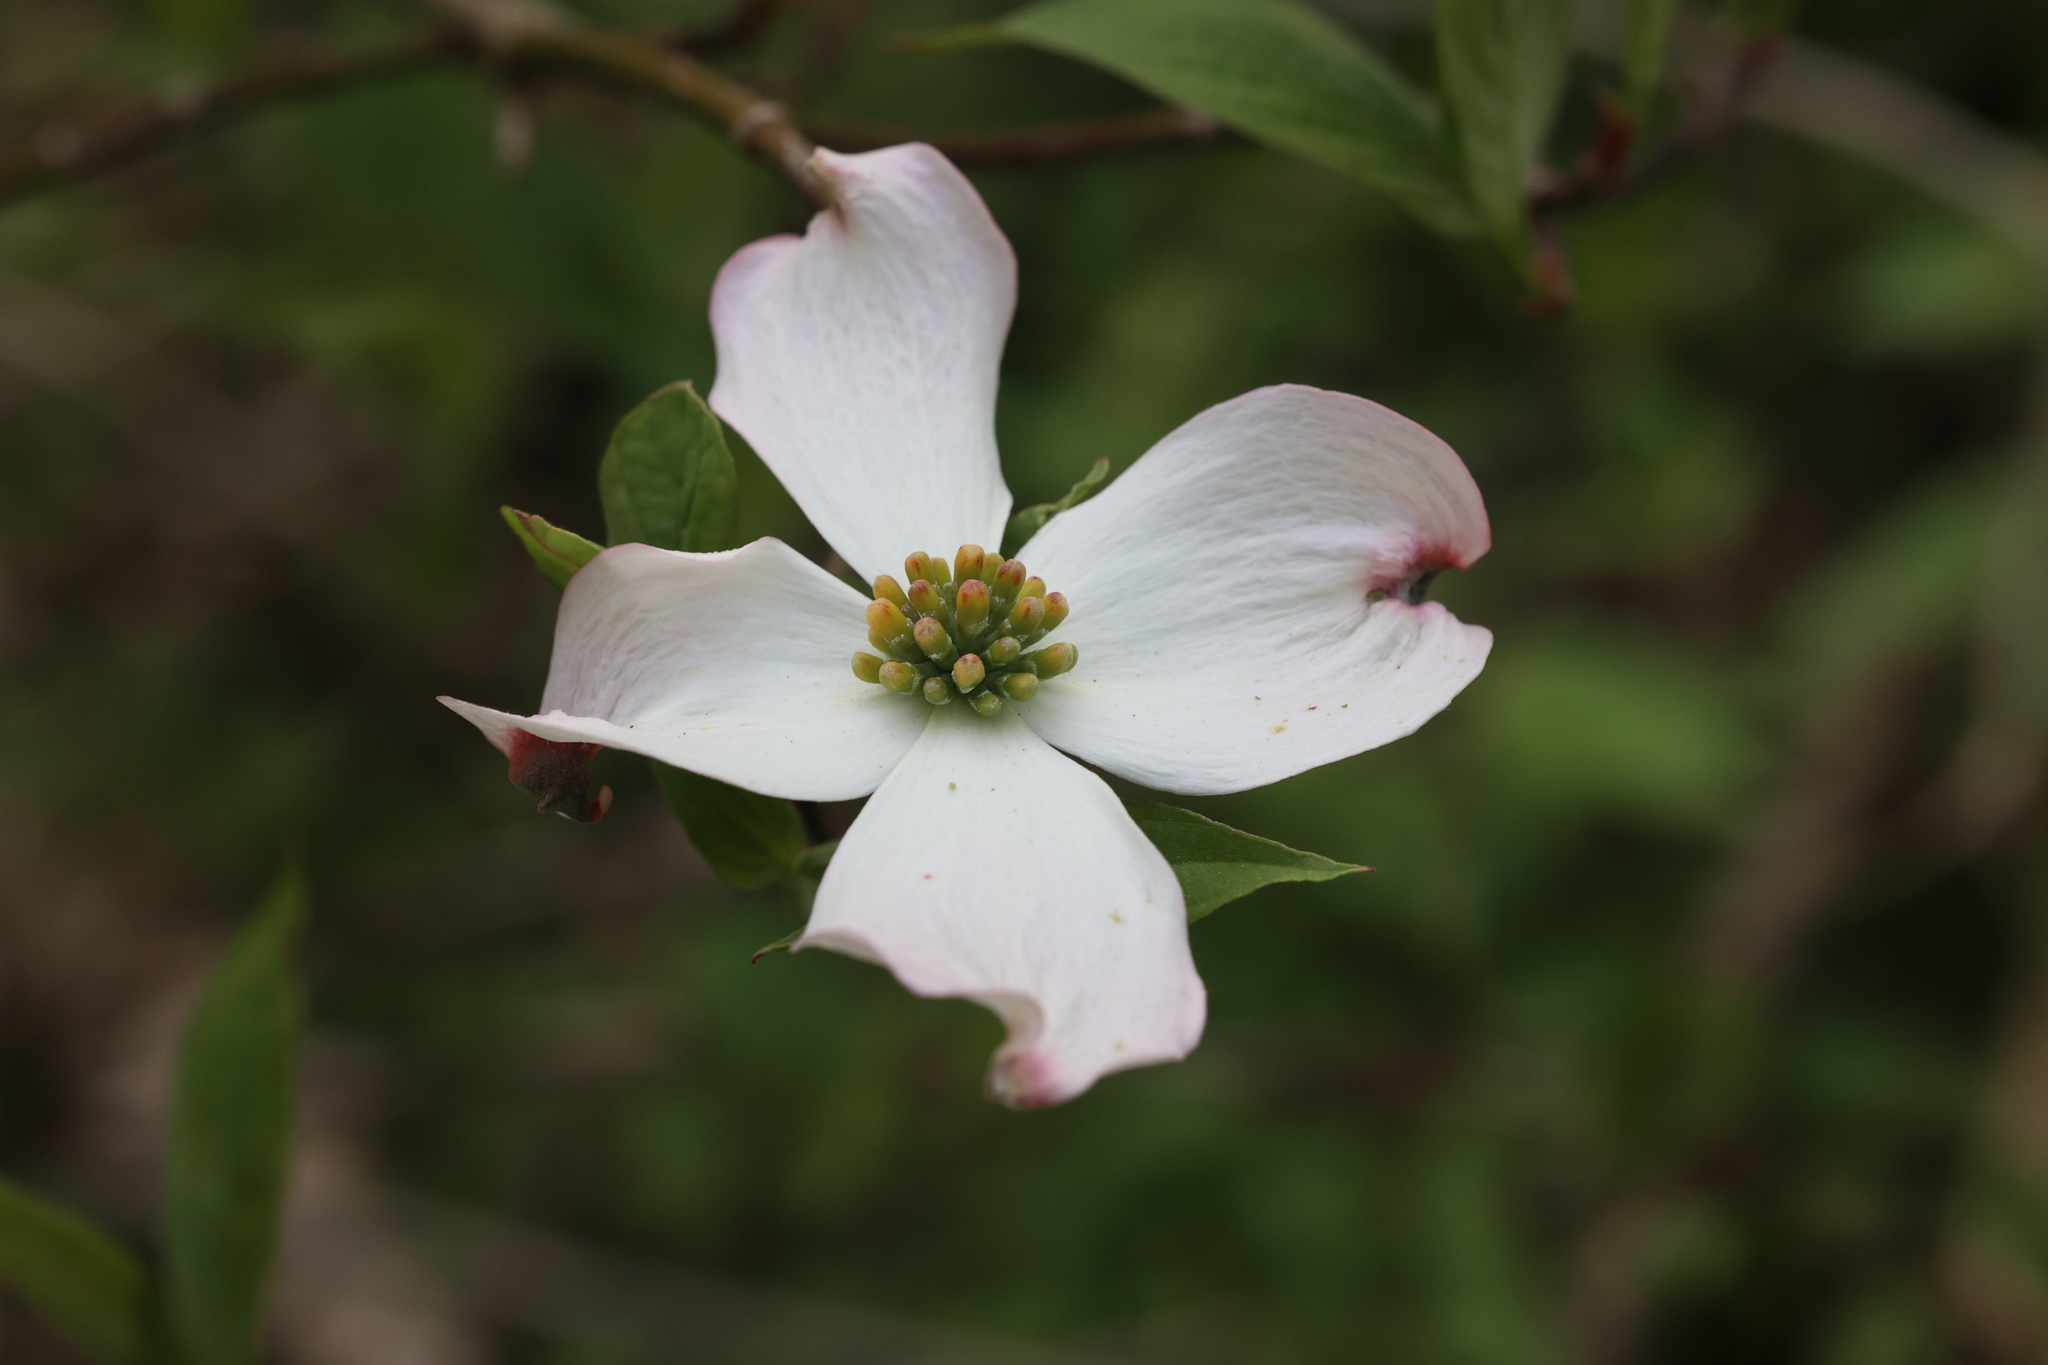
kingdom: Plantae
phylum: Tracheophyta
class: Magnoliopsida
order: Cornales
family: Cornaceae
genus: Cornus
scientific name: Cornus florida
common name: Flowering dogwood
